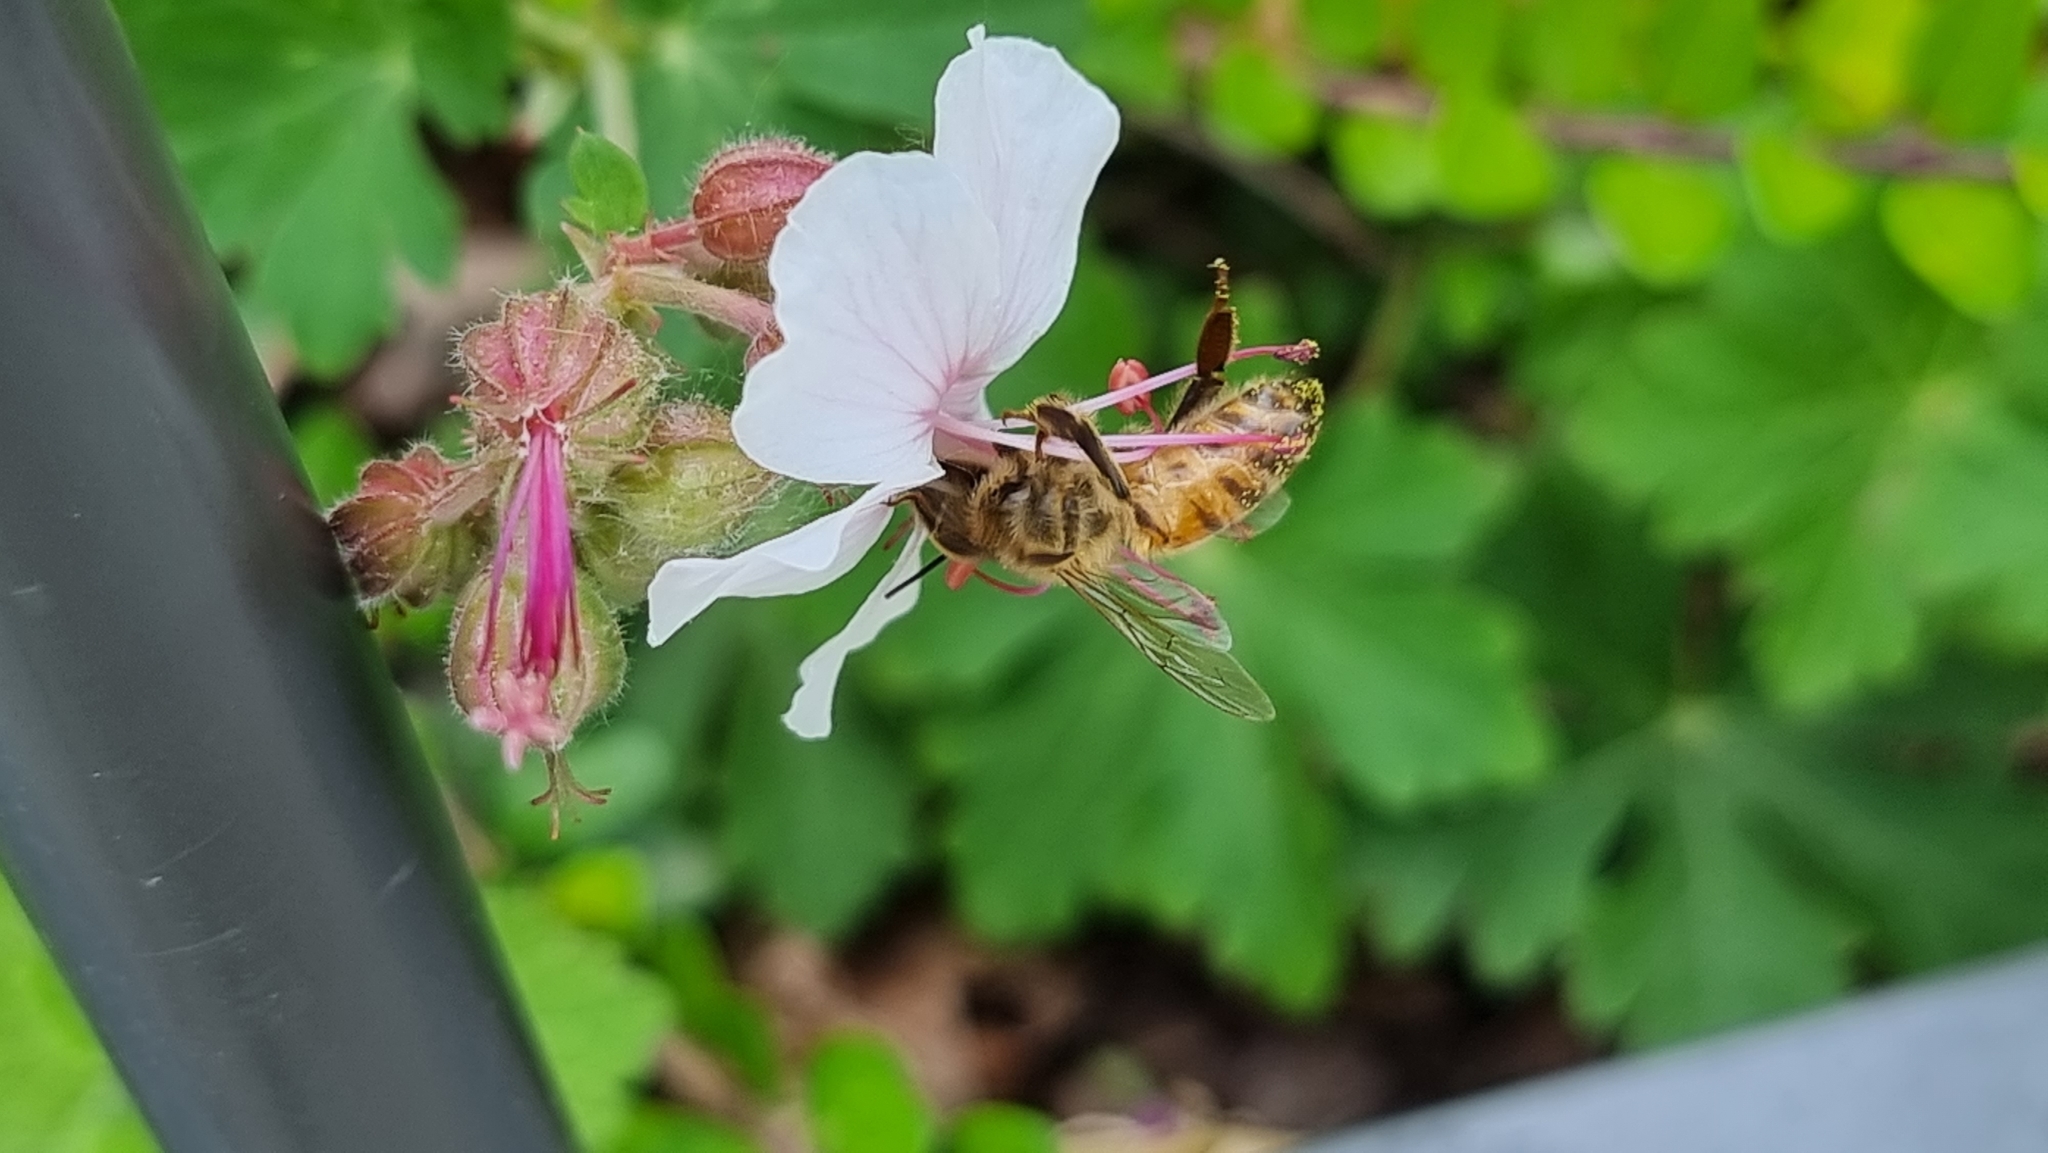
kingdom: Animalia
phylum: Arthropoda
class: Insecta
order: Hymenoptera
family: Apidae
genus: Apis
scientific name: Apis mellifera
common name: Honey bee
